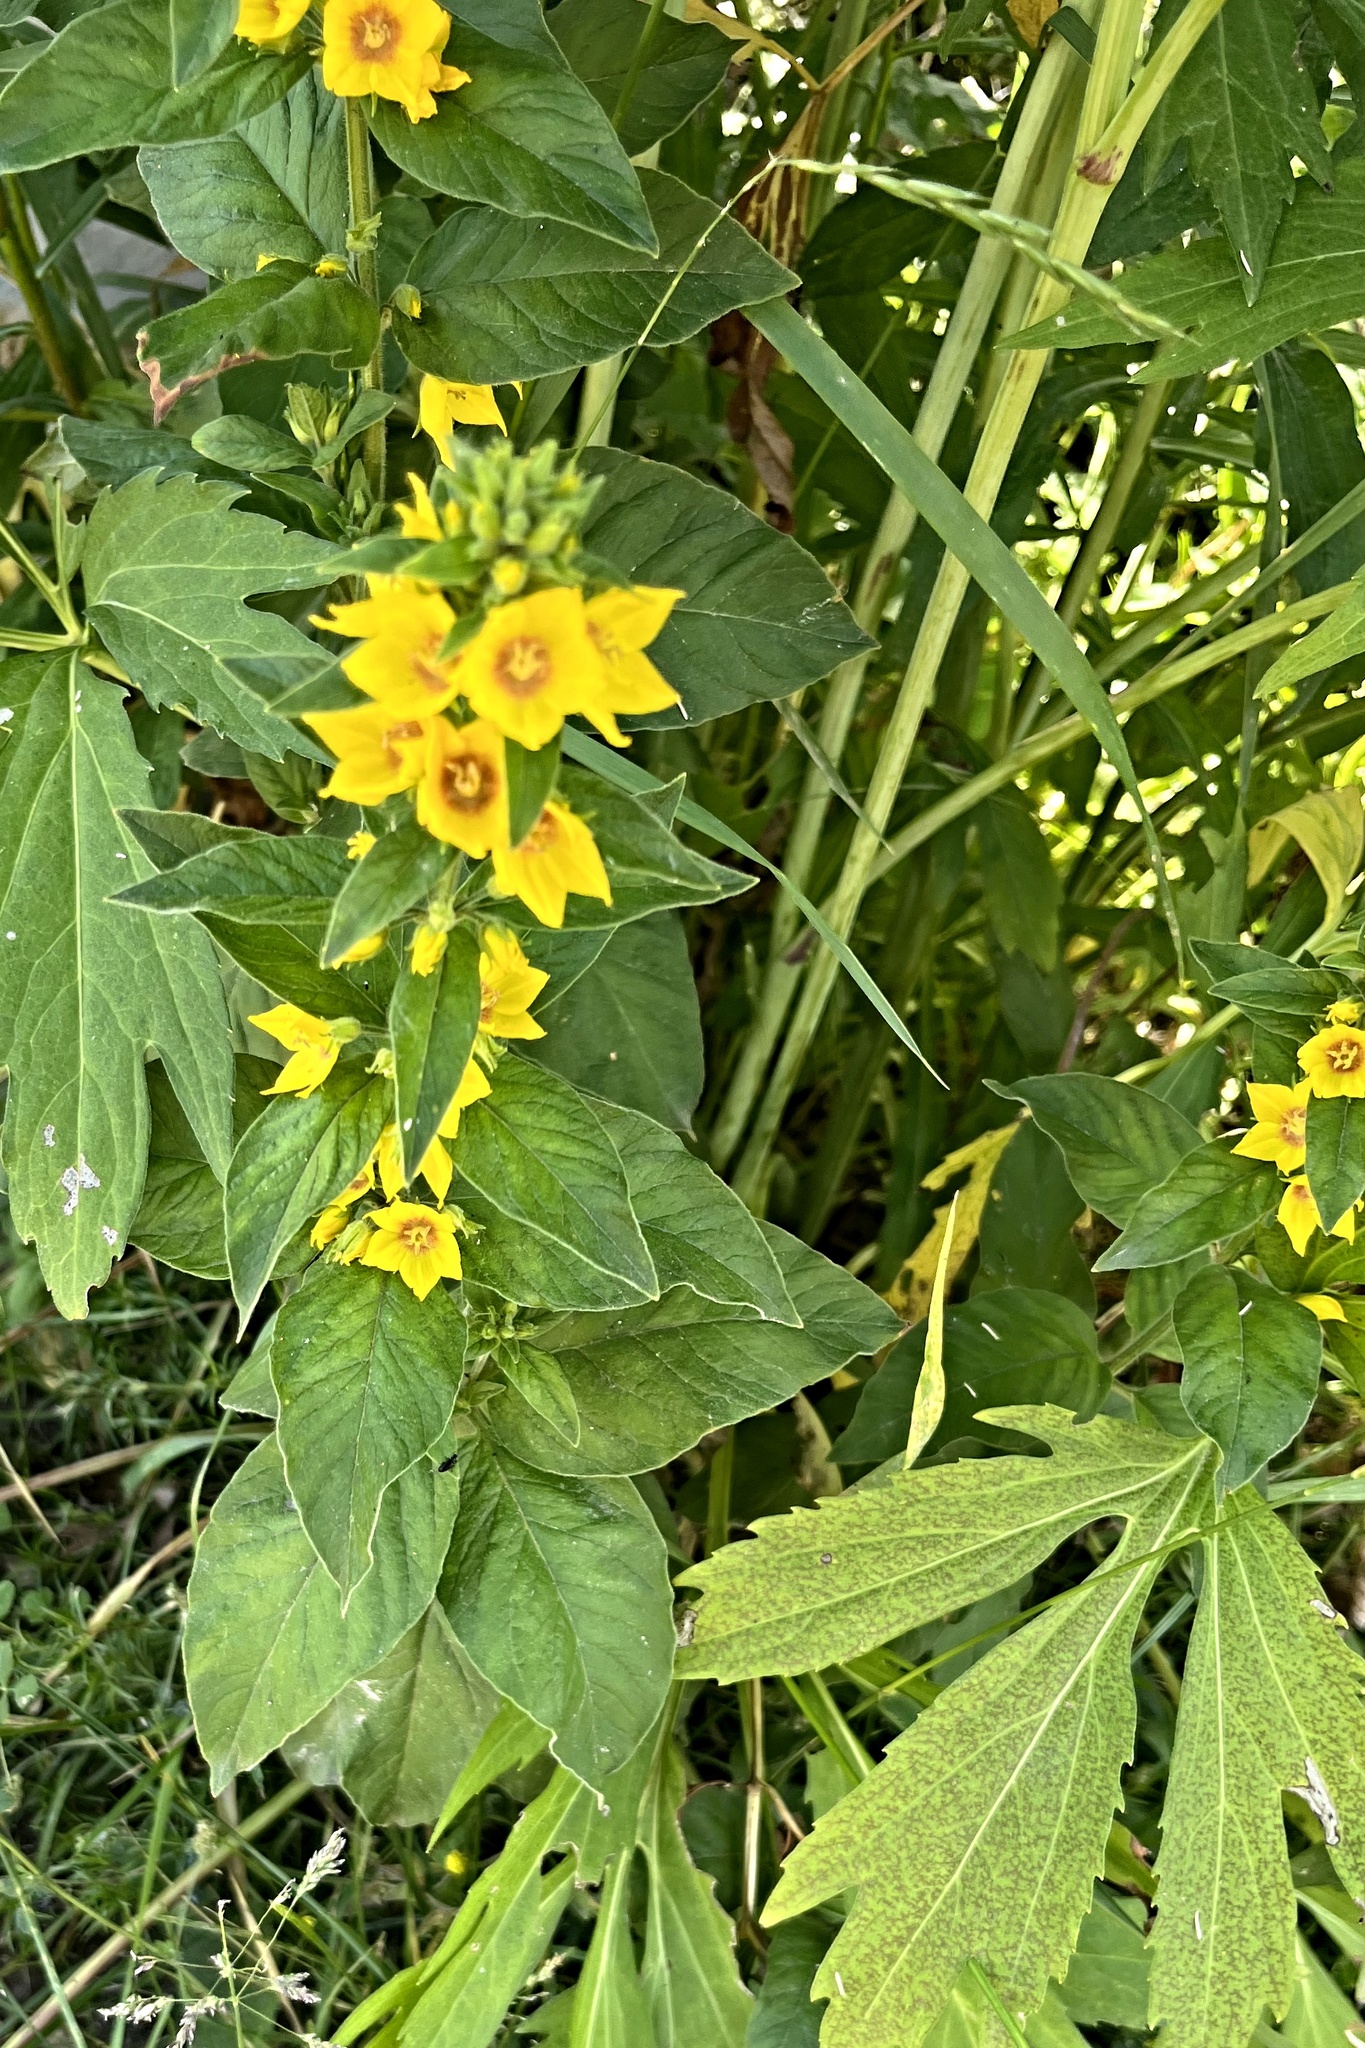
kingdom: Plantae
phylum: Tracheophyta
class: Magnoliopsida
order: Ericales
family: Primulaceae
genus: Lysimachia
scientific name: Lysimachia punctata
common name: Dotted loosestrife
